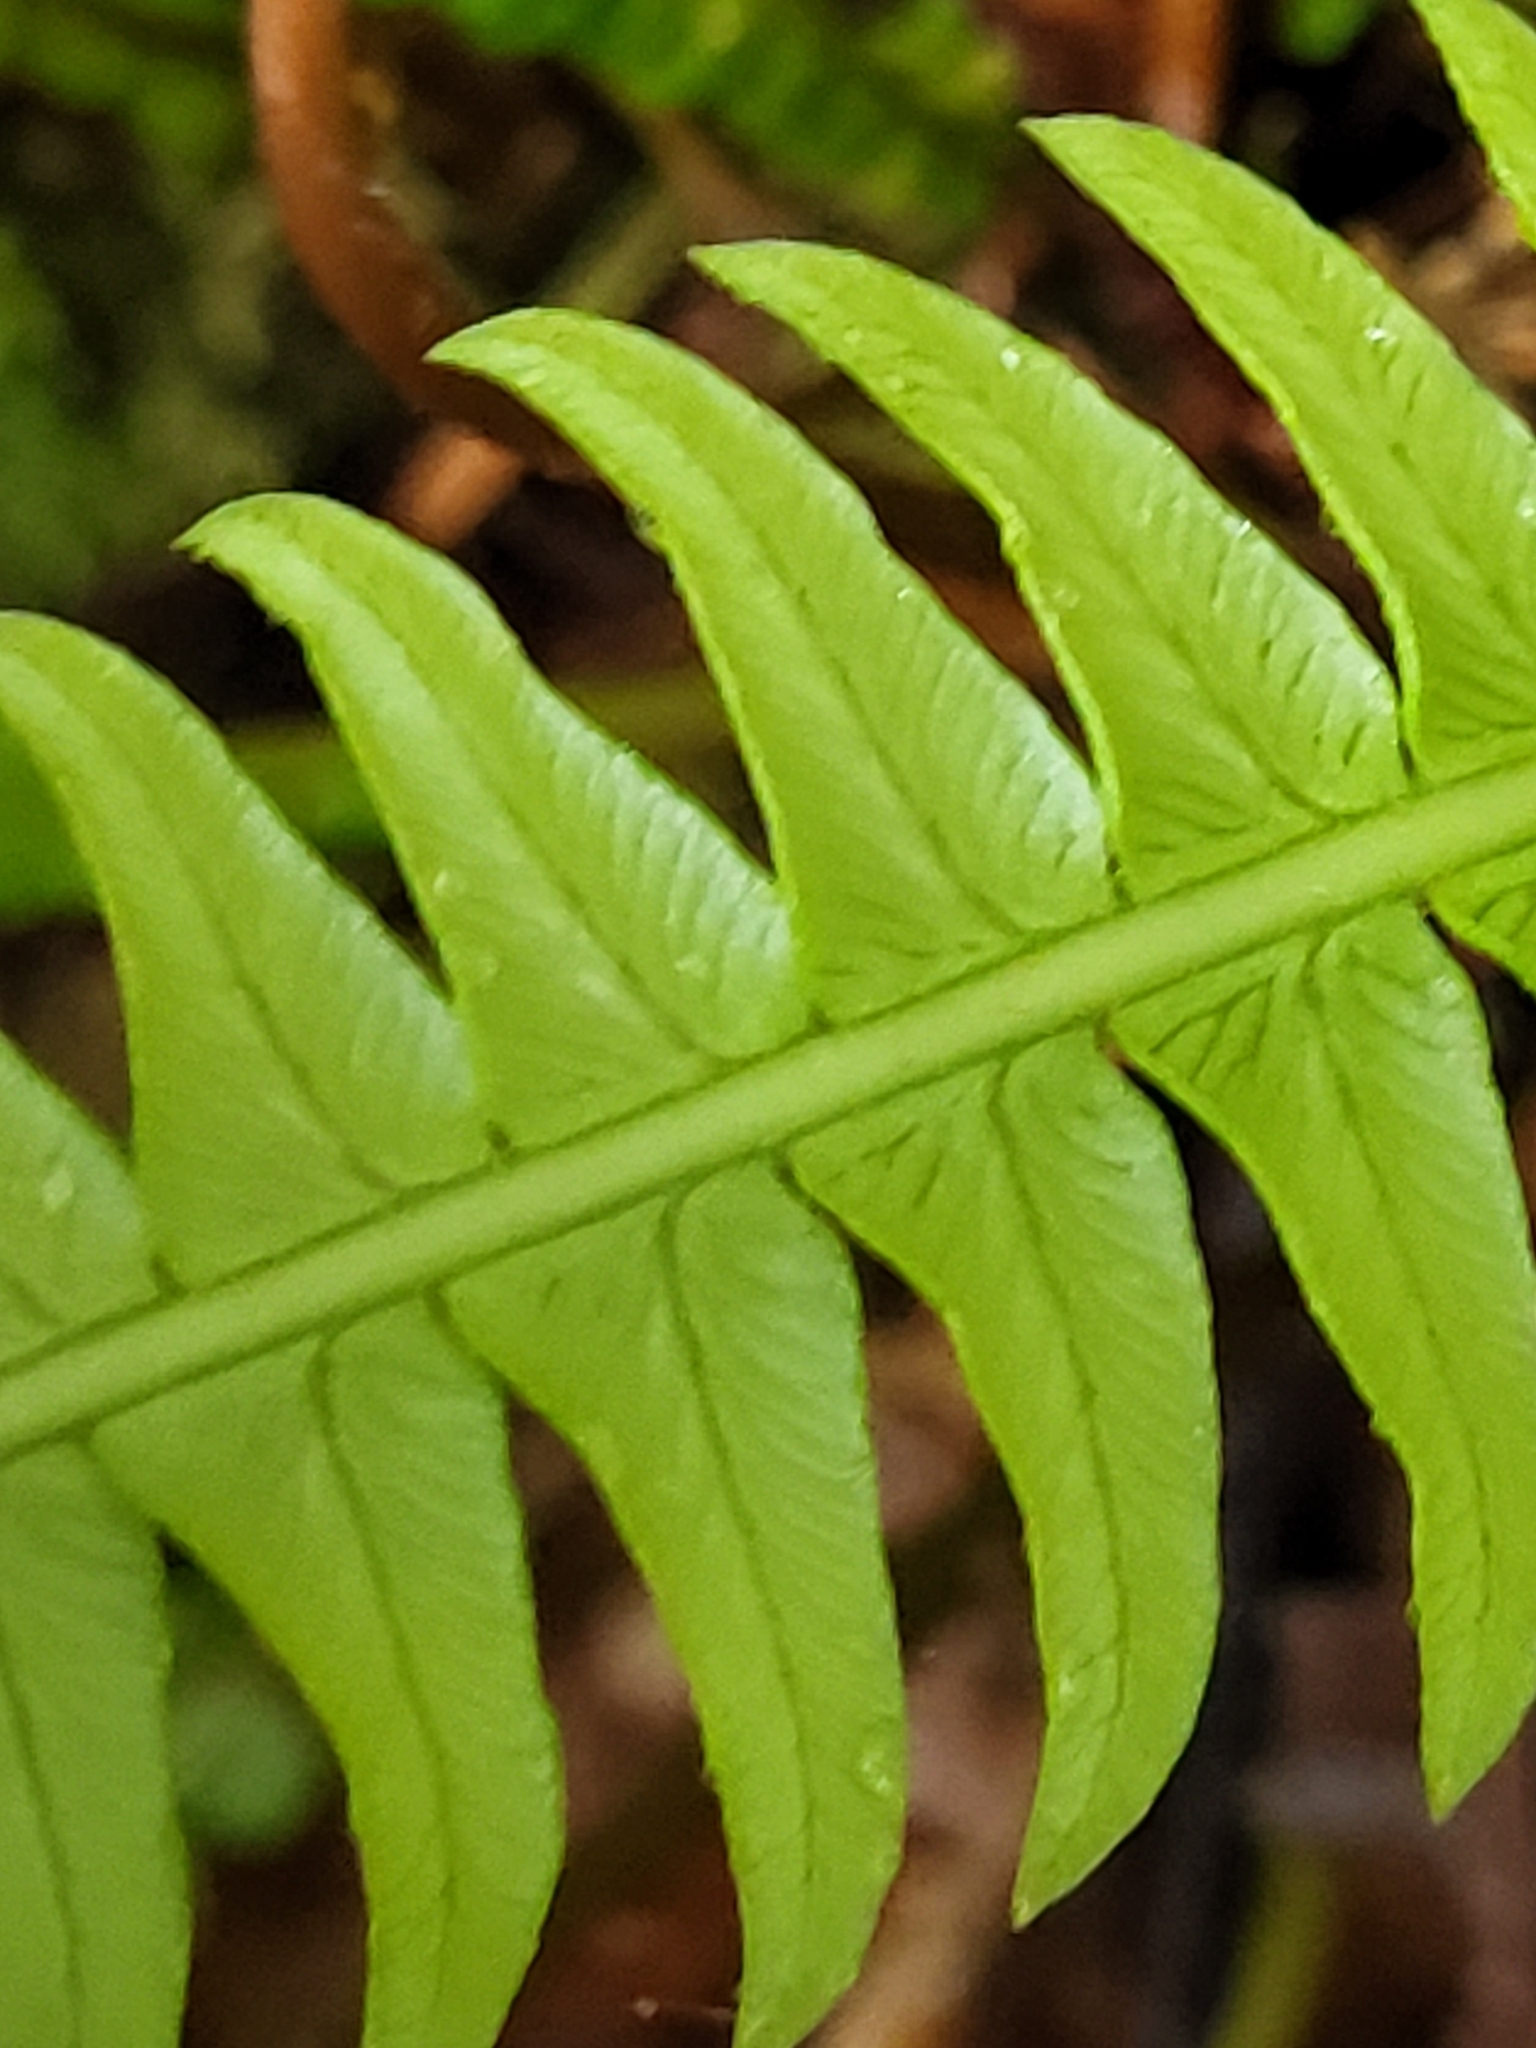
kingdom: Plantae
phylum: Tracheophyta
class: Polypodiopsida
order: Polypodiales
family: Blechnaceae
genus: Struthiopteris
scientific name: Struthiopteris spicant
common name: Deer fern
